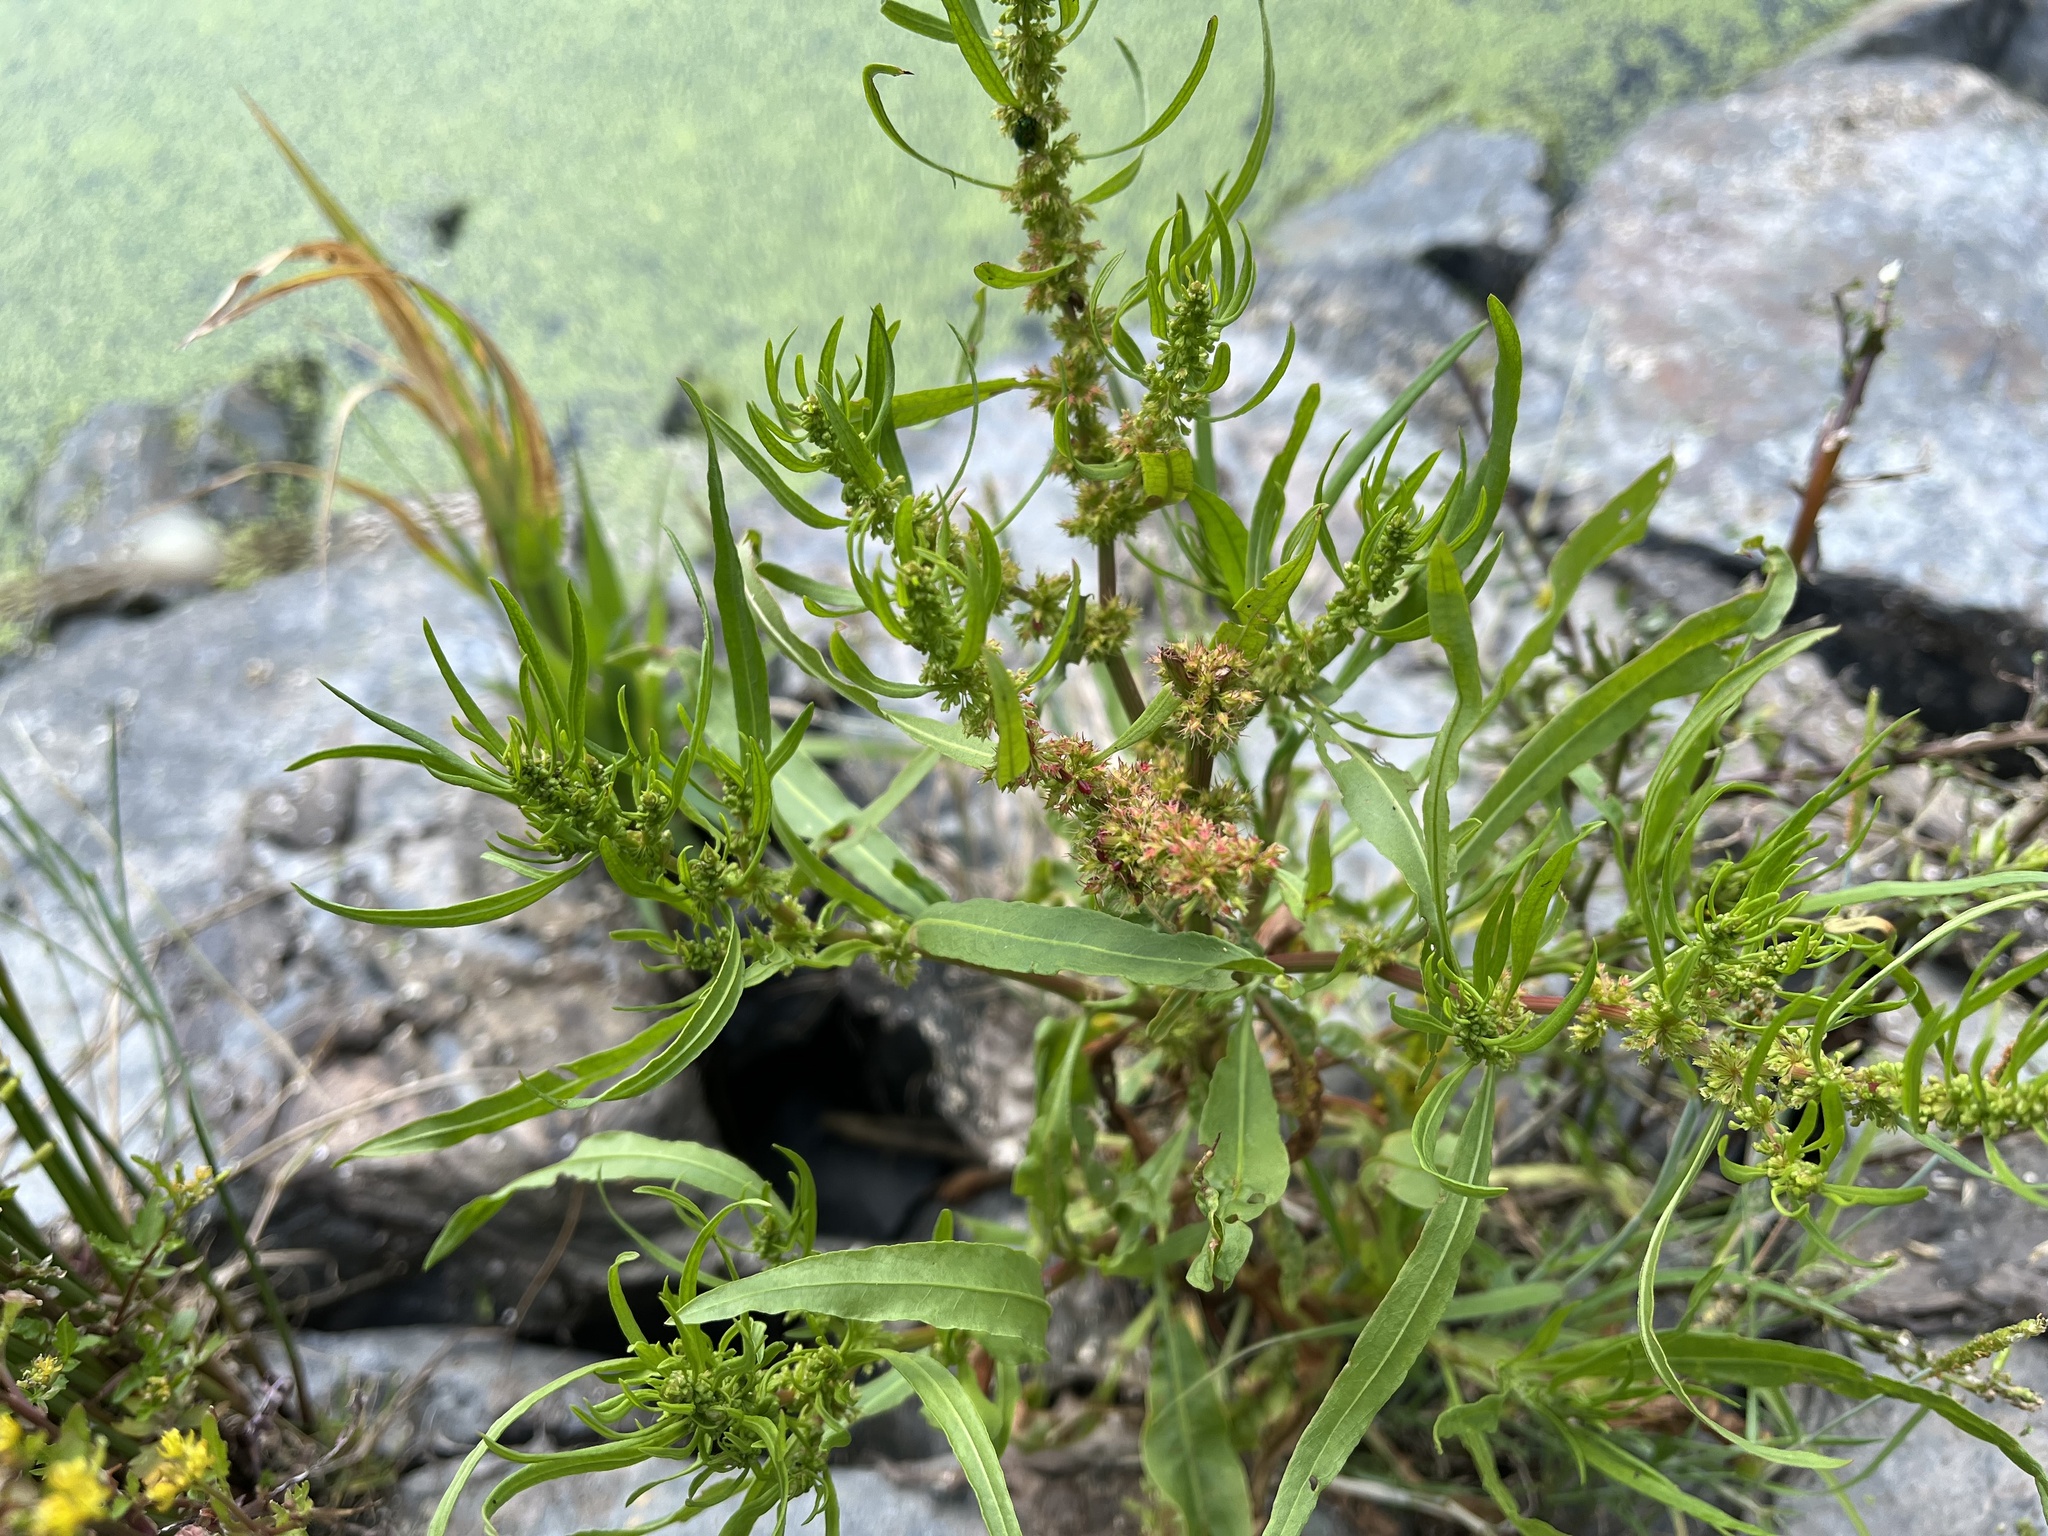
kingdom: Plantae
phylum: Tracheophyta
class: Magnoliopsida
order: Caryophyllales
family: Polygonaceae
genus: Rumex
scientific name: Rumex maritimus
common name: Golden dock
